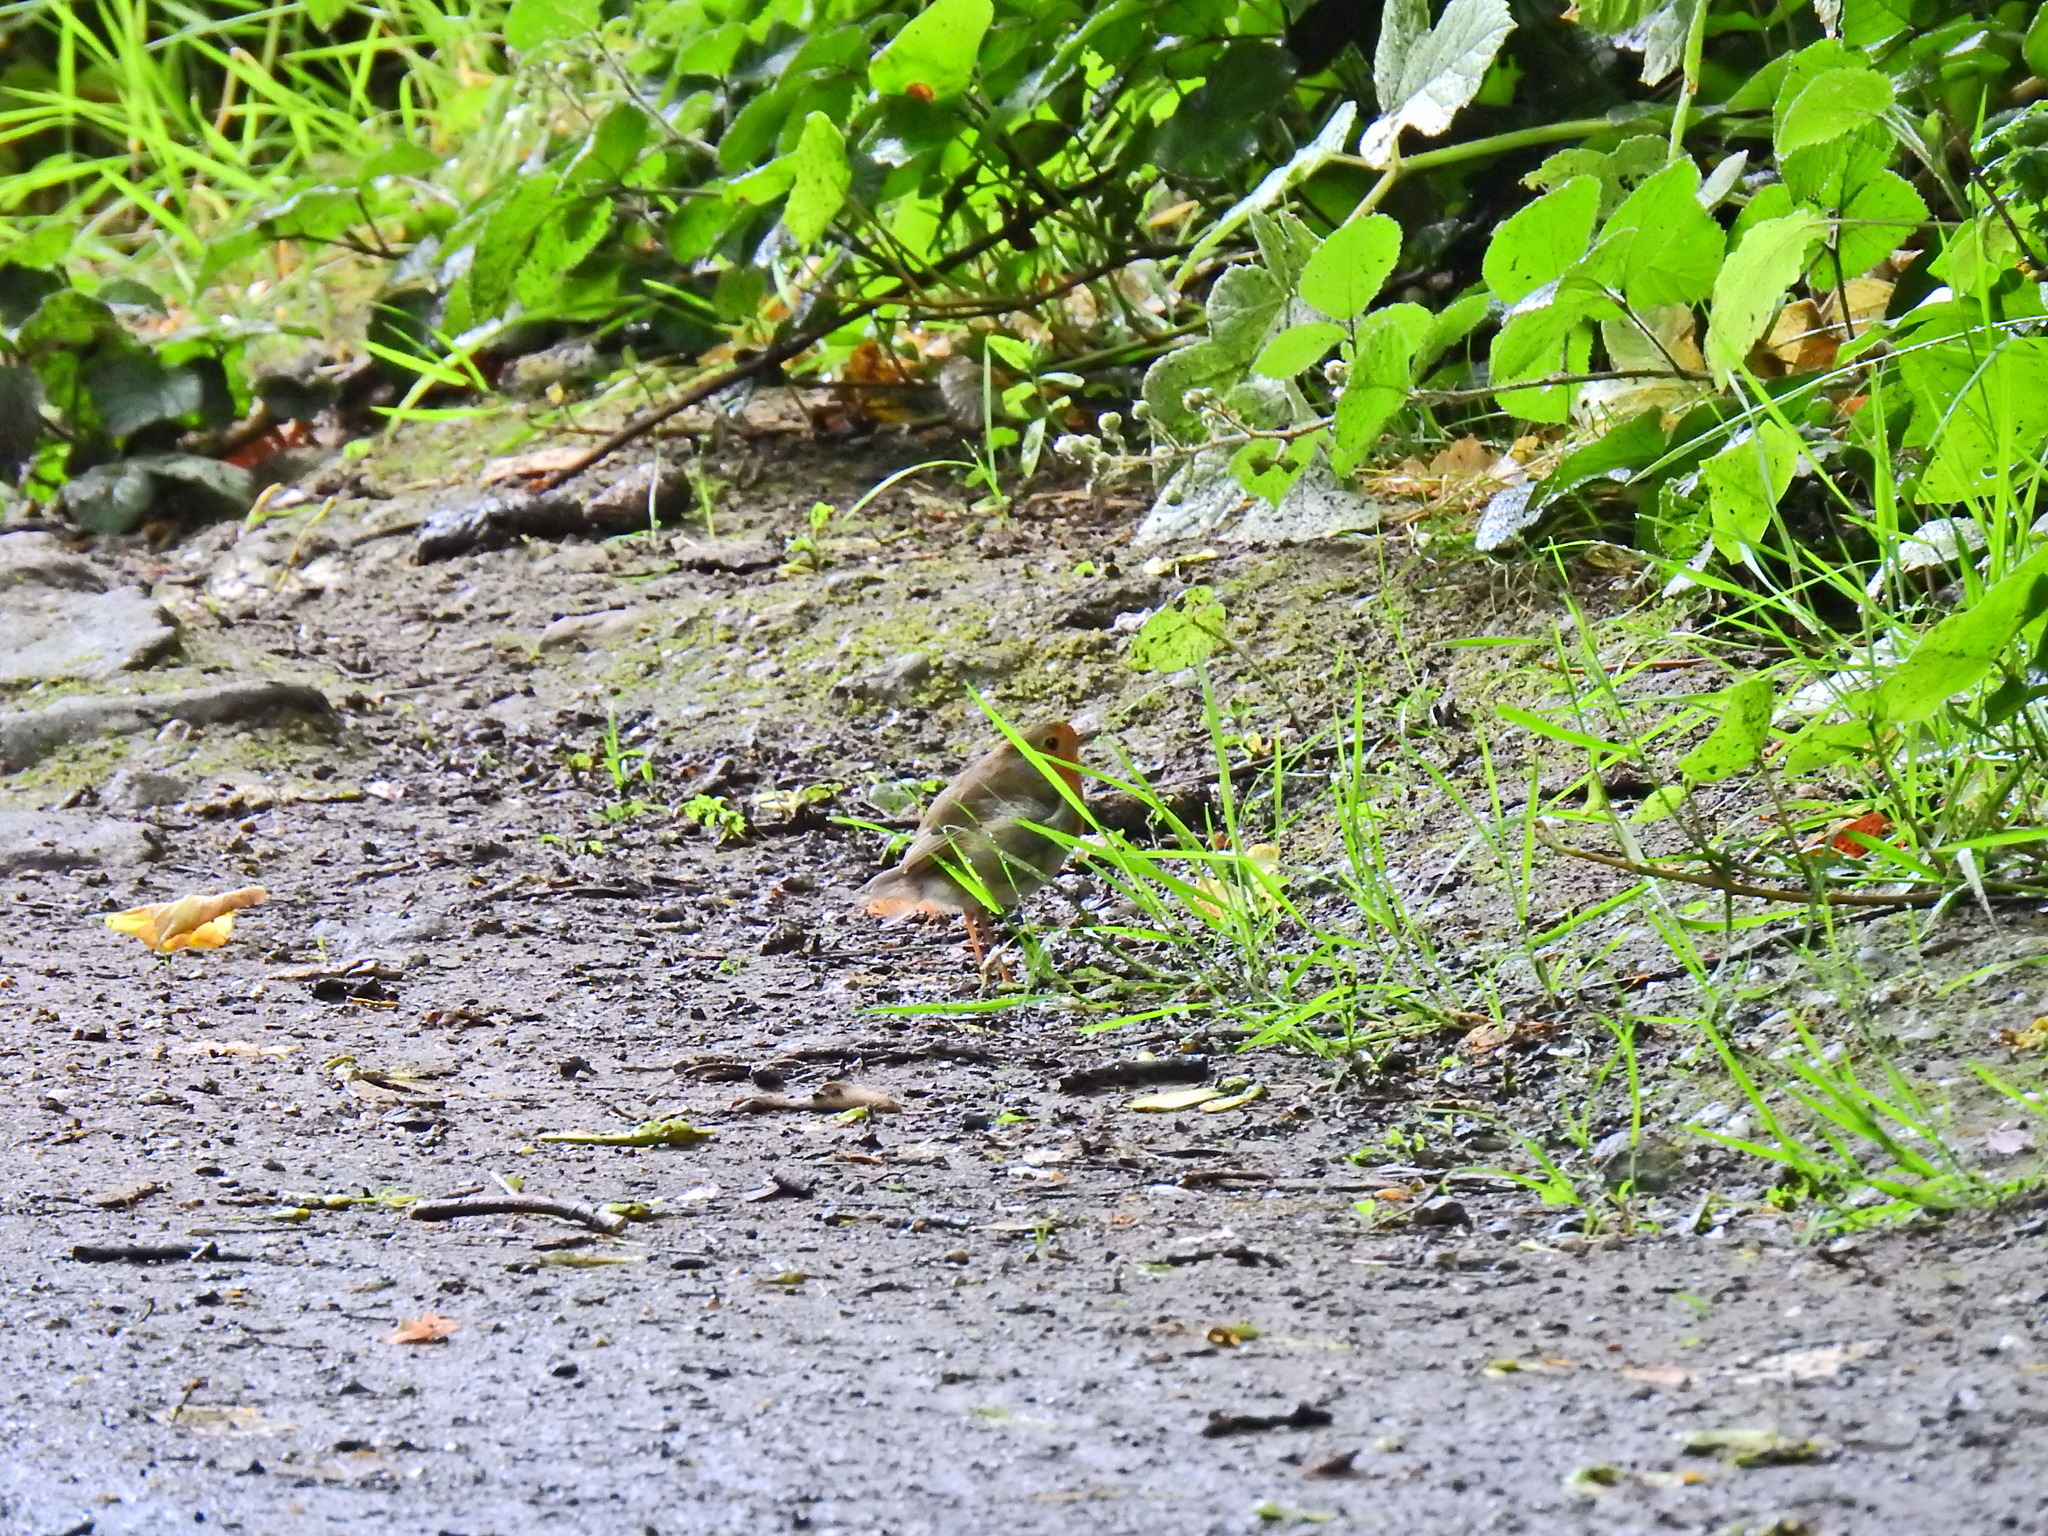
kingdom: Animalia
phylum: Chordata
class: Aves
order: Passeriformes
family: Muscicapidae
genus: Erithacus
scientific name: Erithacus rubecula
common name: European robin
